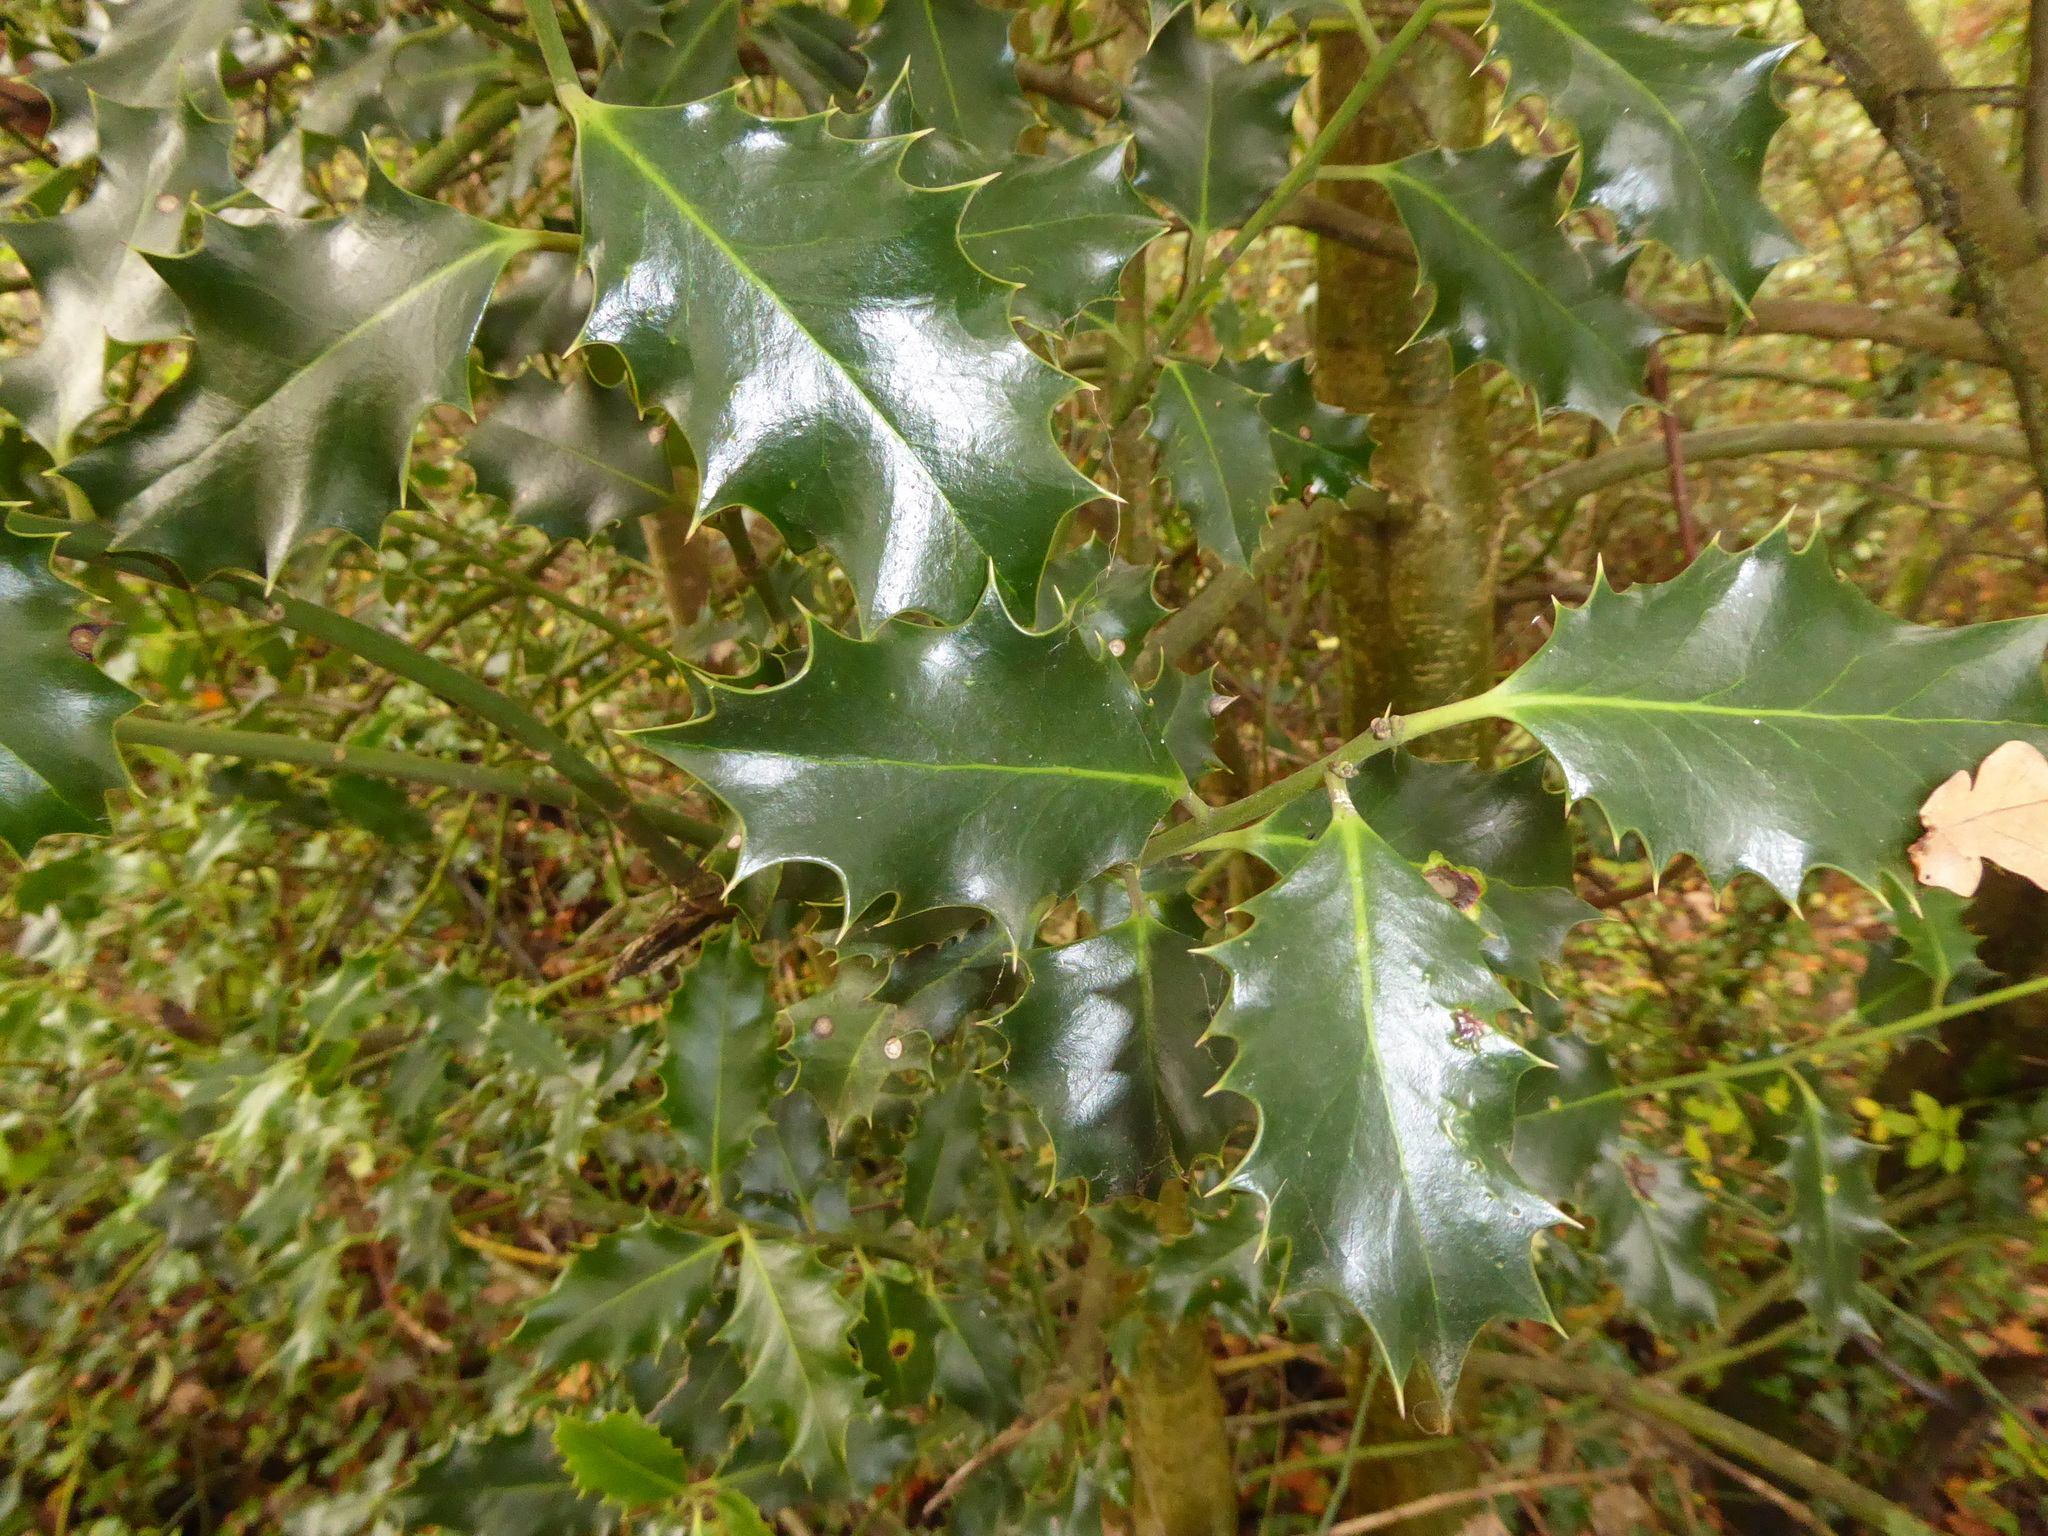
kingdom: Plantae
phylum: Tracheophyta
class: Magnoliopsida
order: Aquifoliales
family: Aquifoliaceae
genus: Ilex
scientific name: Ilex aquifolium
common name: English holly
